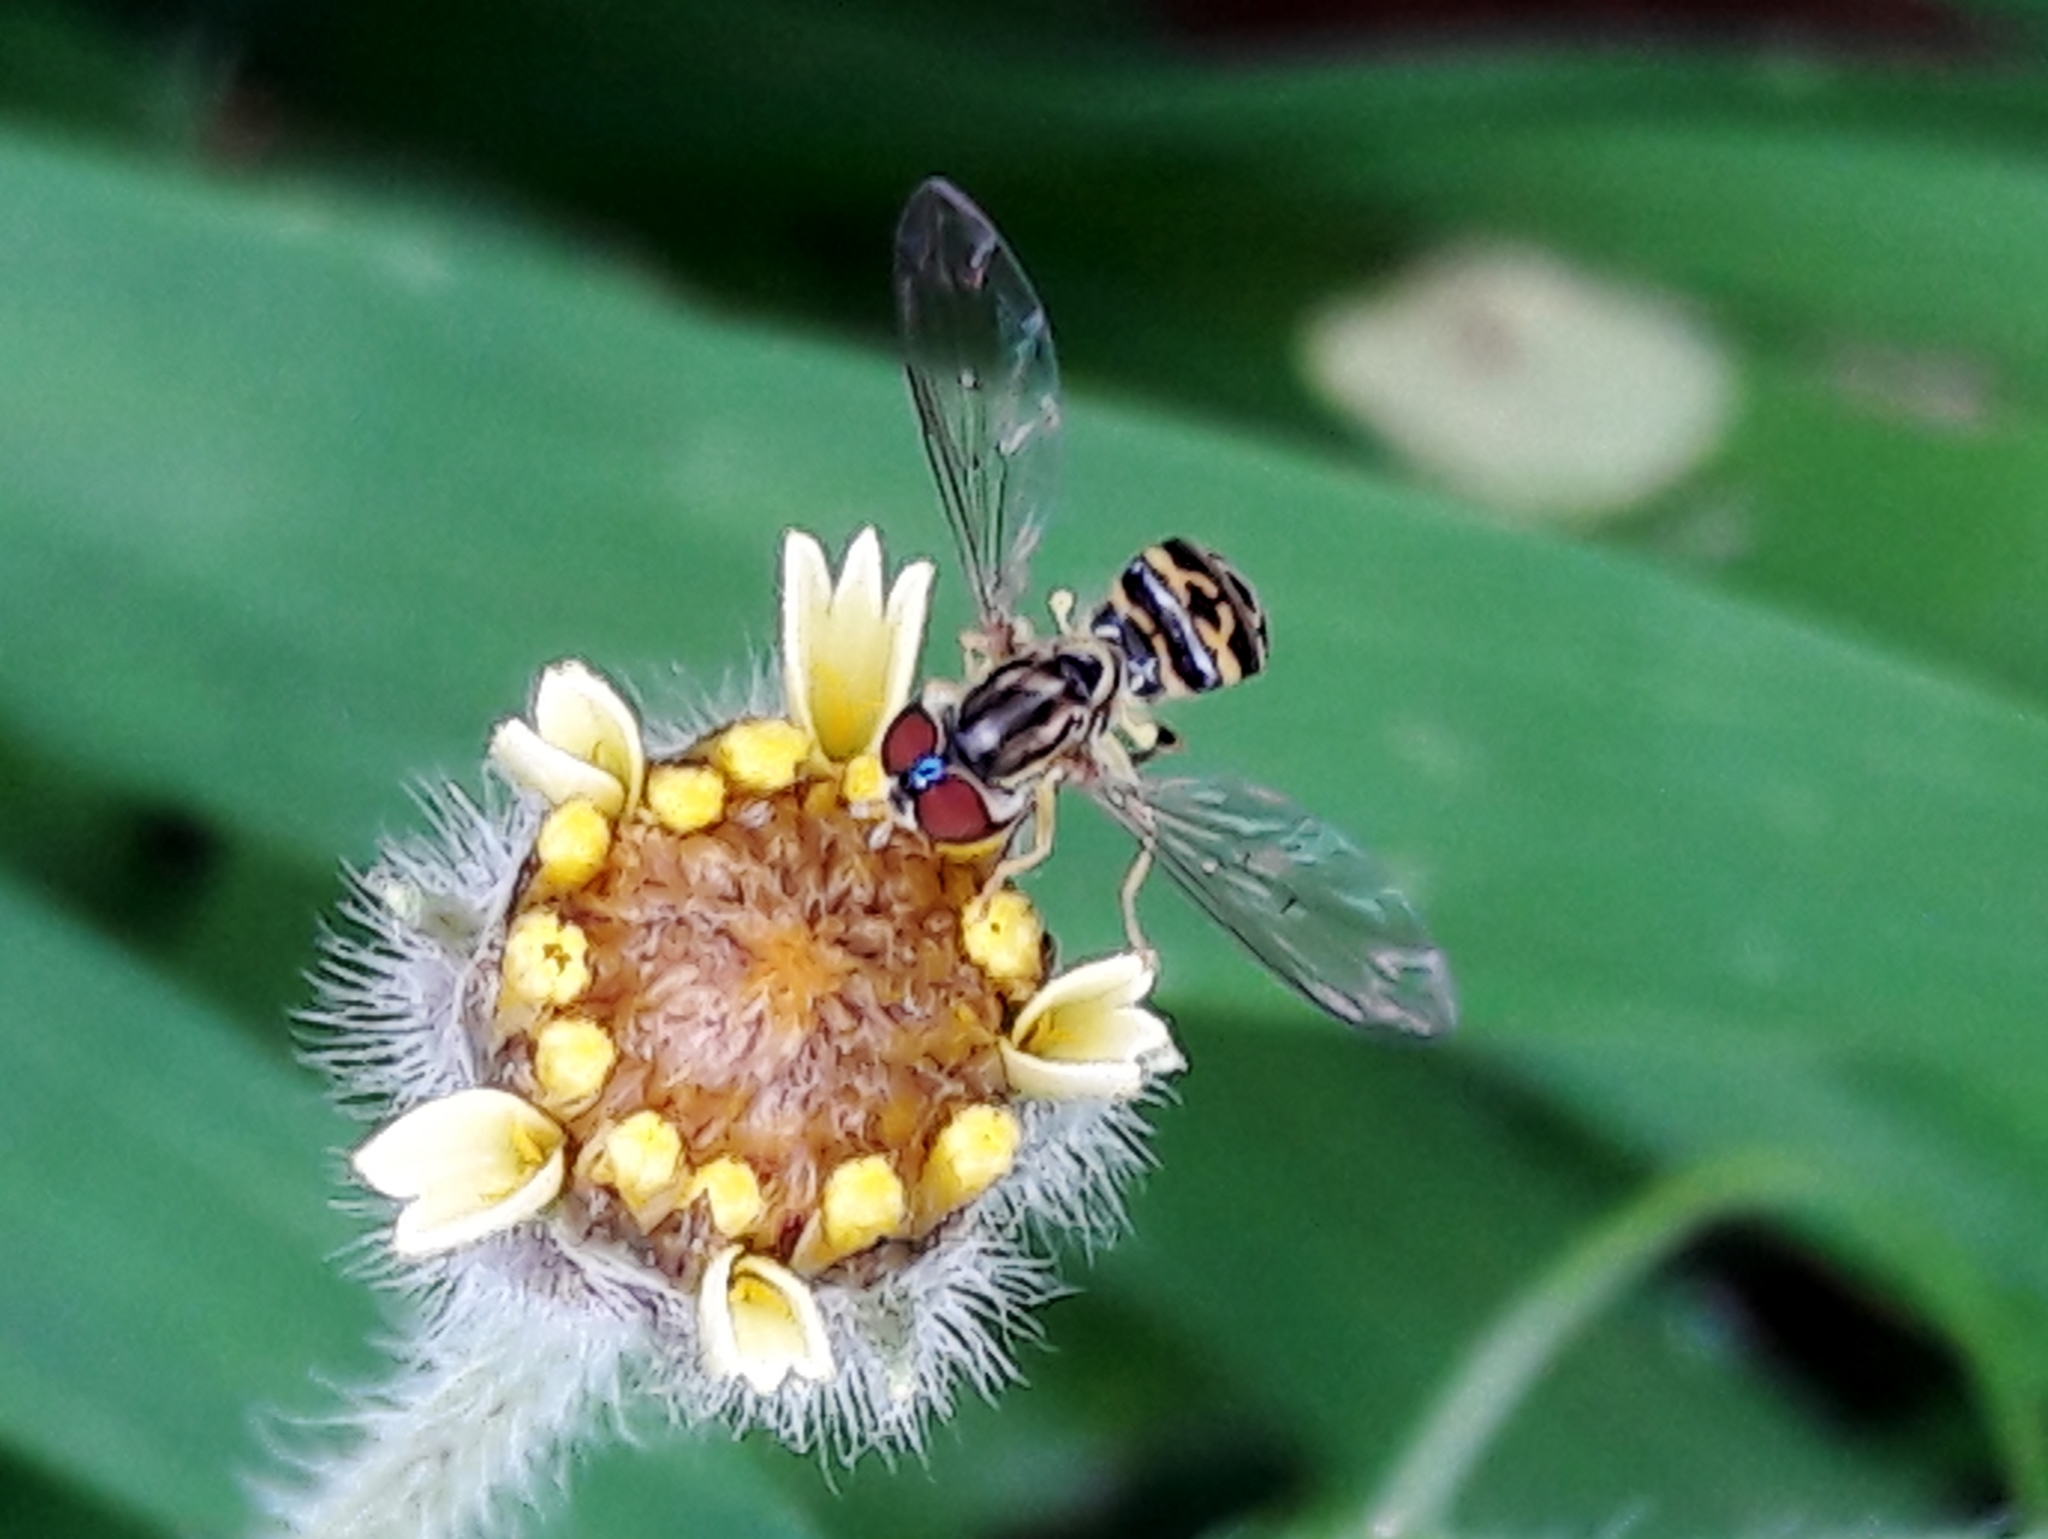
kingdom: Animalia
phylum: Arthropoda
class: Insecta
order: Diptera
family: Syrphidae
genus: Toxomerus
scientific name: Toxomerus virgulatus
